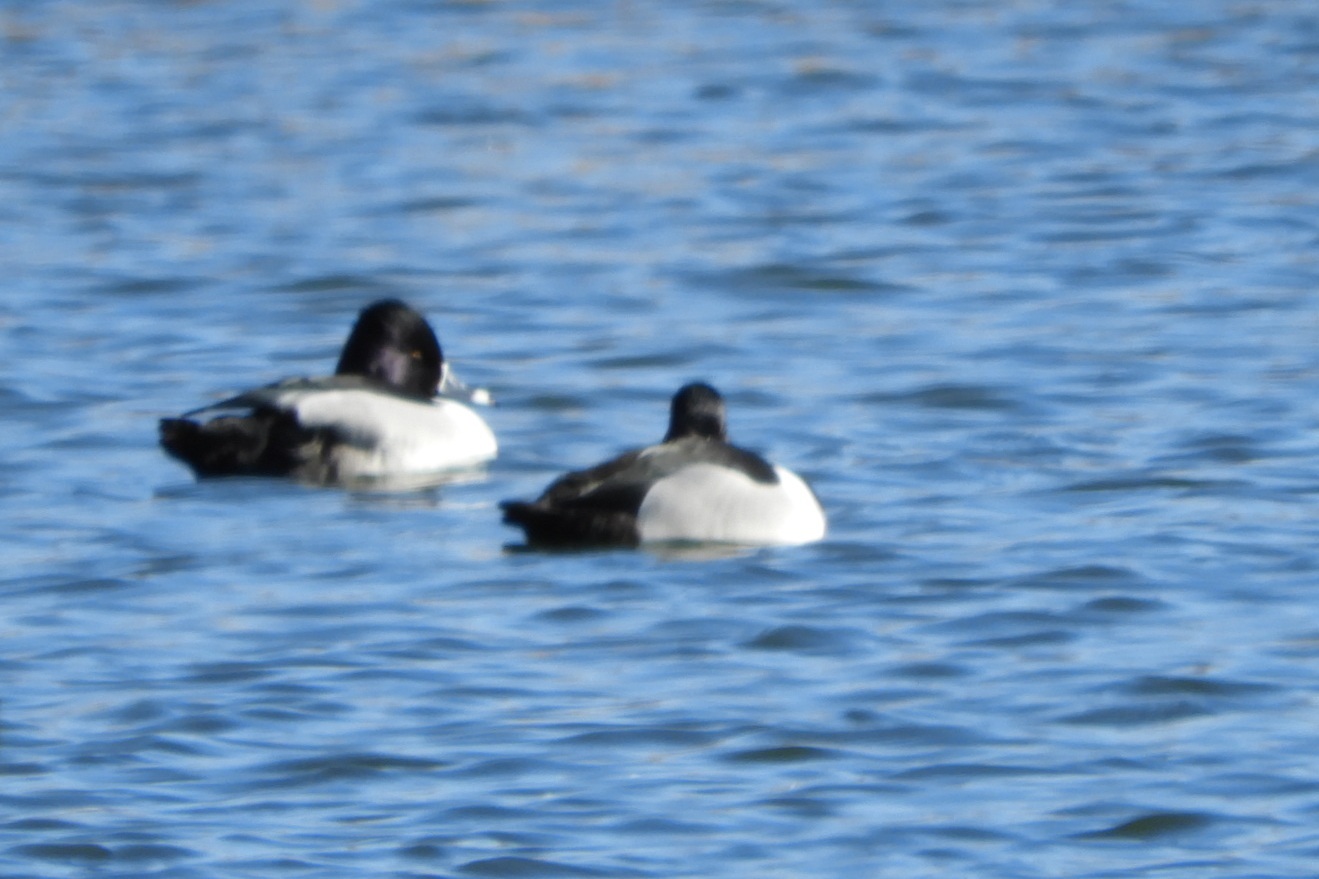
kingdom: Animalia
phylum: Chordata
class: Aves
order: Anseriformes
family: Anatidae
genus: Aythya
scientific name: Aythya collaris
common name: Ring-necked duck
